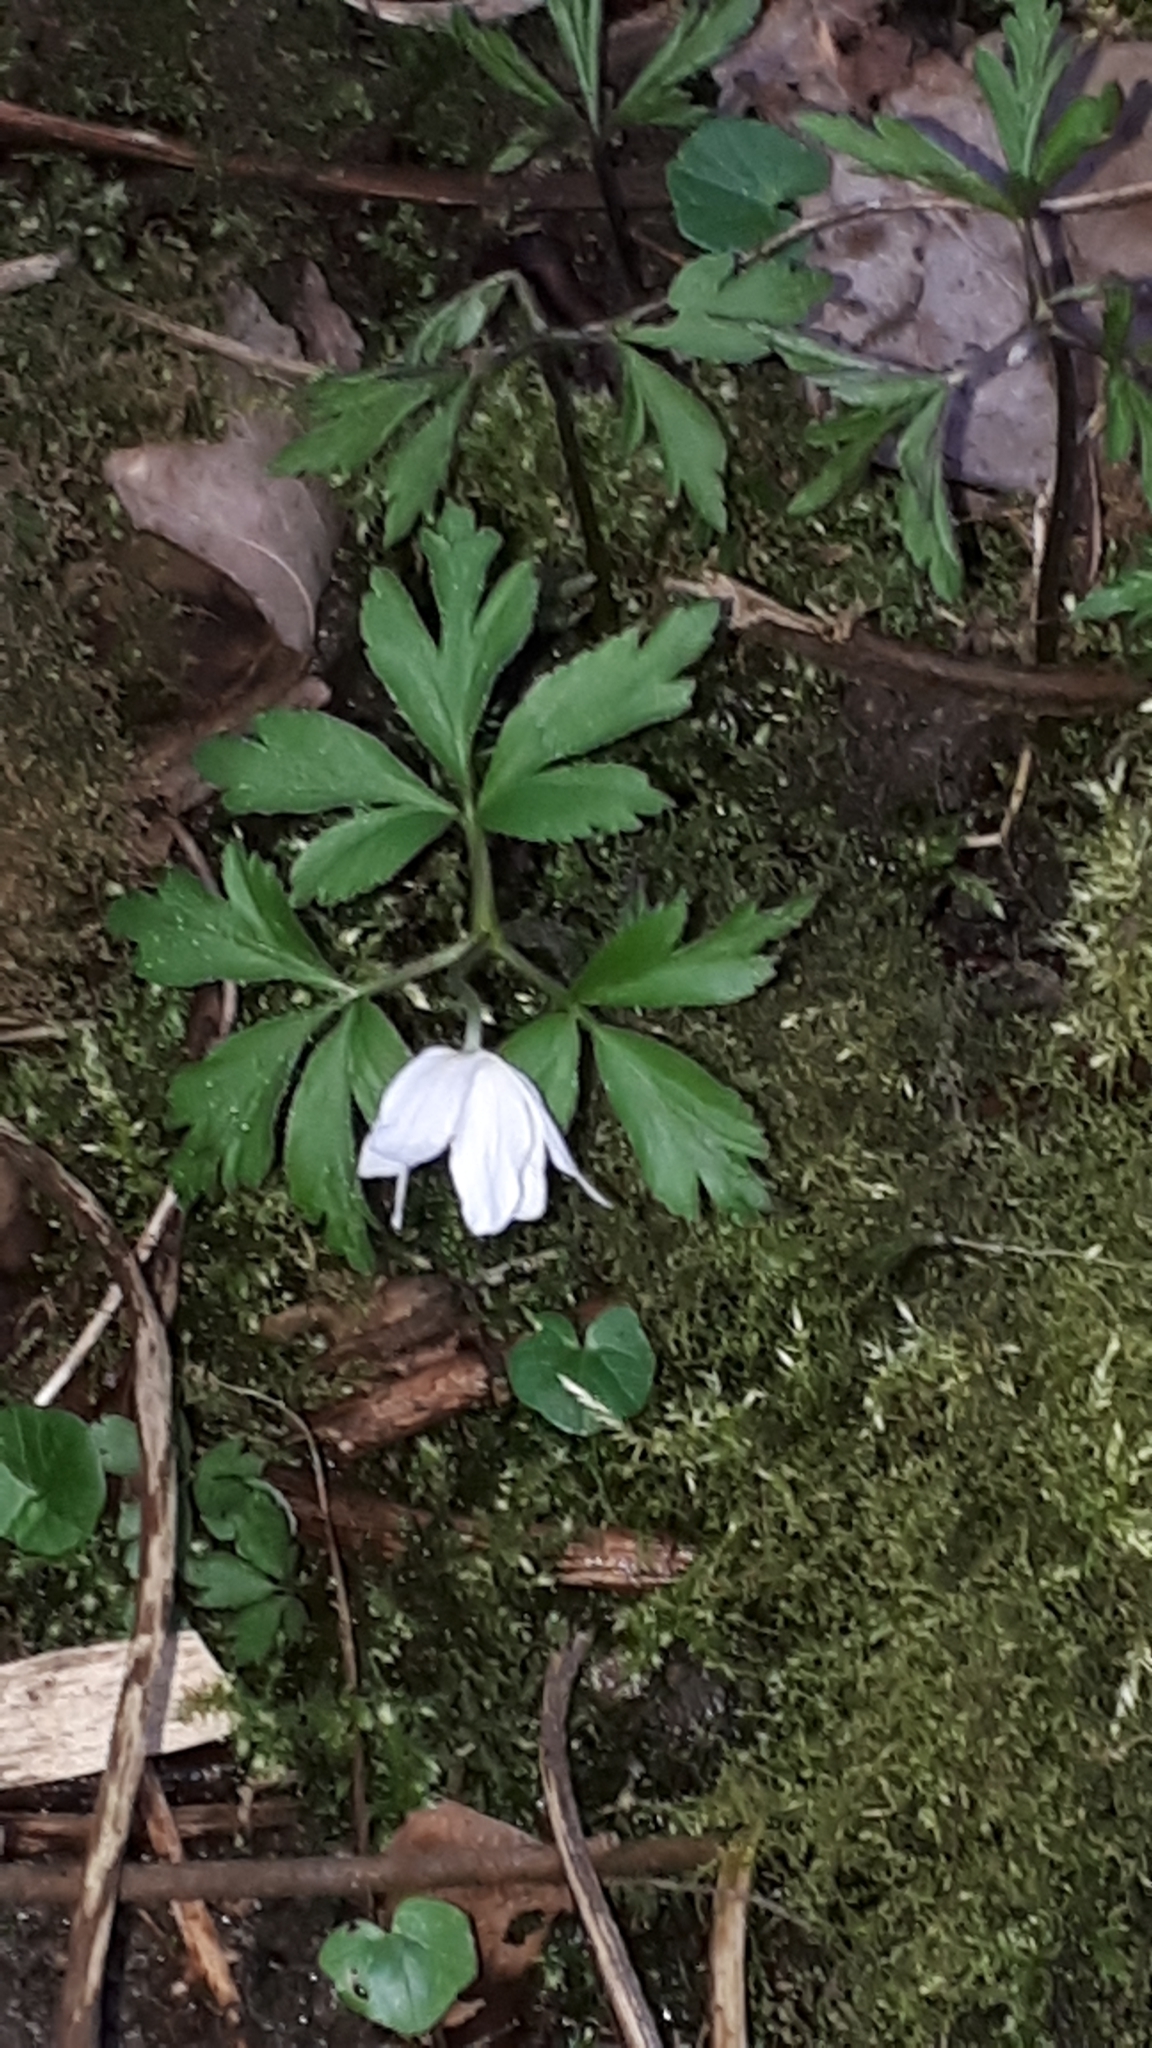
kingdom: Plantae
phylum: Tracheophyta
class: Magnoliopsida
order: Ranunculales
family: Ranunculaceae
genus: Anemone
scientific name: Anemone nemorosa
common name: Wood anemone
